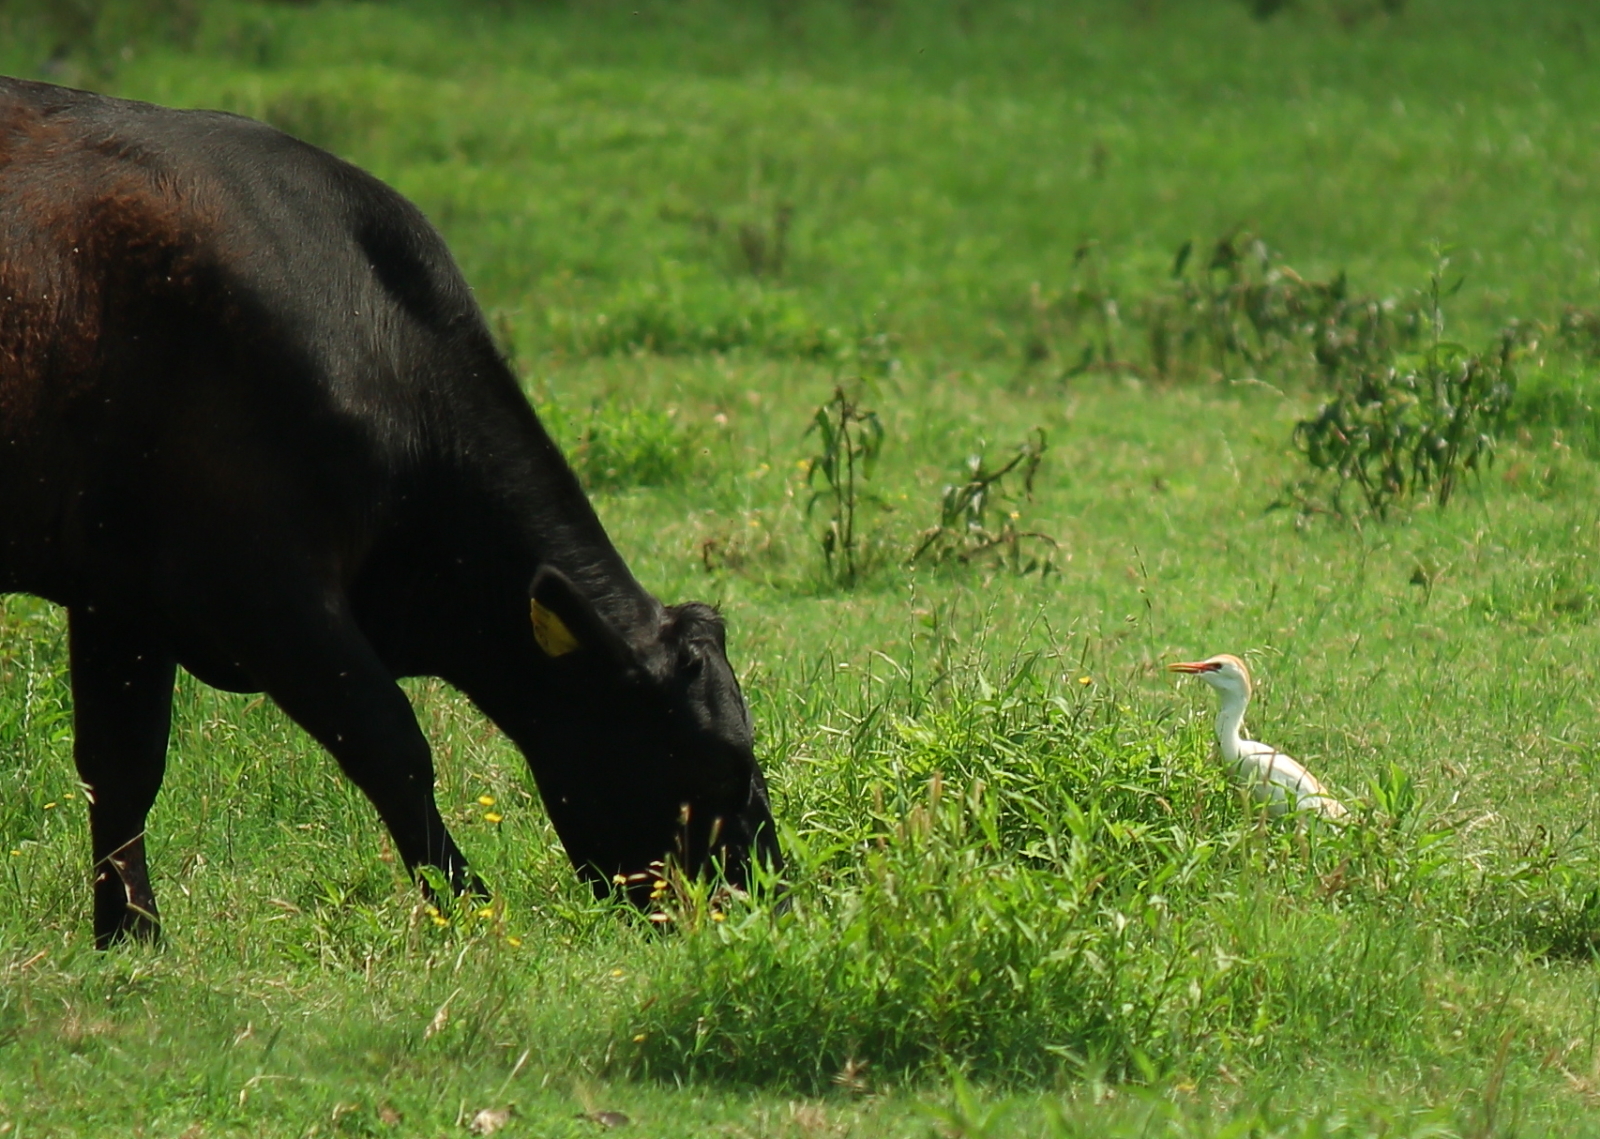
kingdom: Animalia
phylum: Chordata
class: Aves
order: Pelecaniformes
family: Ardeidae
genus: Bubulcus
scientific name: Bubulcus ibis
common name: Cattle egret
